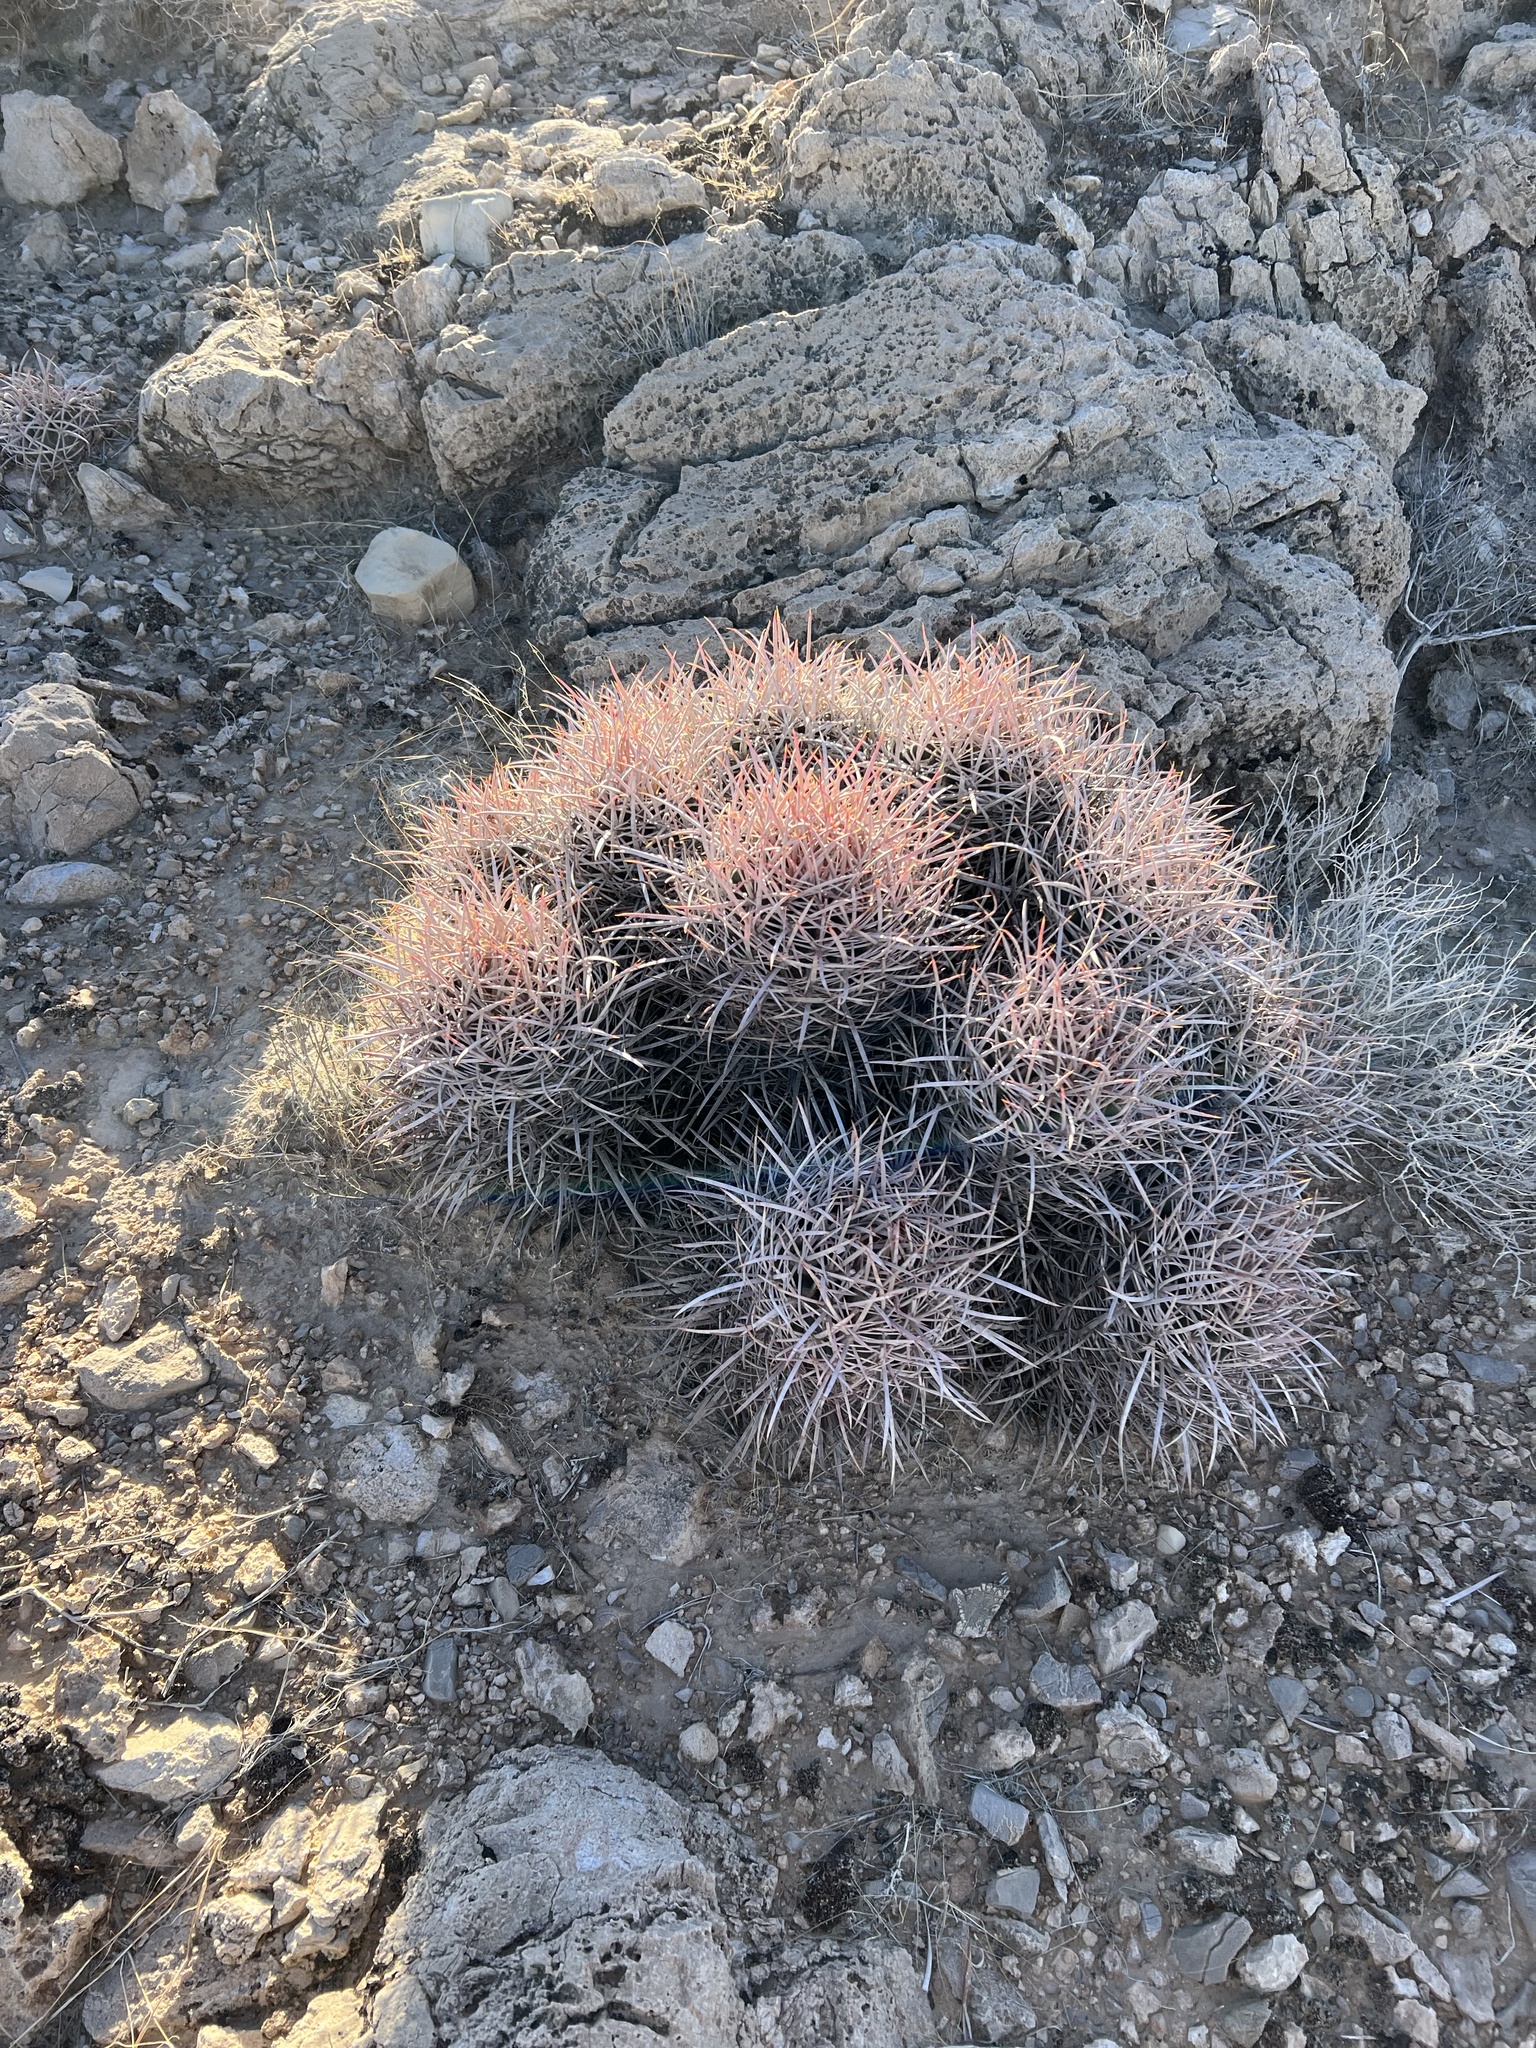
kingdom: Plantae
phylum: Tracheophyta
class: Magnoliopsida
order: Caryophyllales
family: Cactaceae
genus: Echinocactus
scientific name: Echinocactus polycephalus
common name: Cottontop cactus
